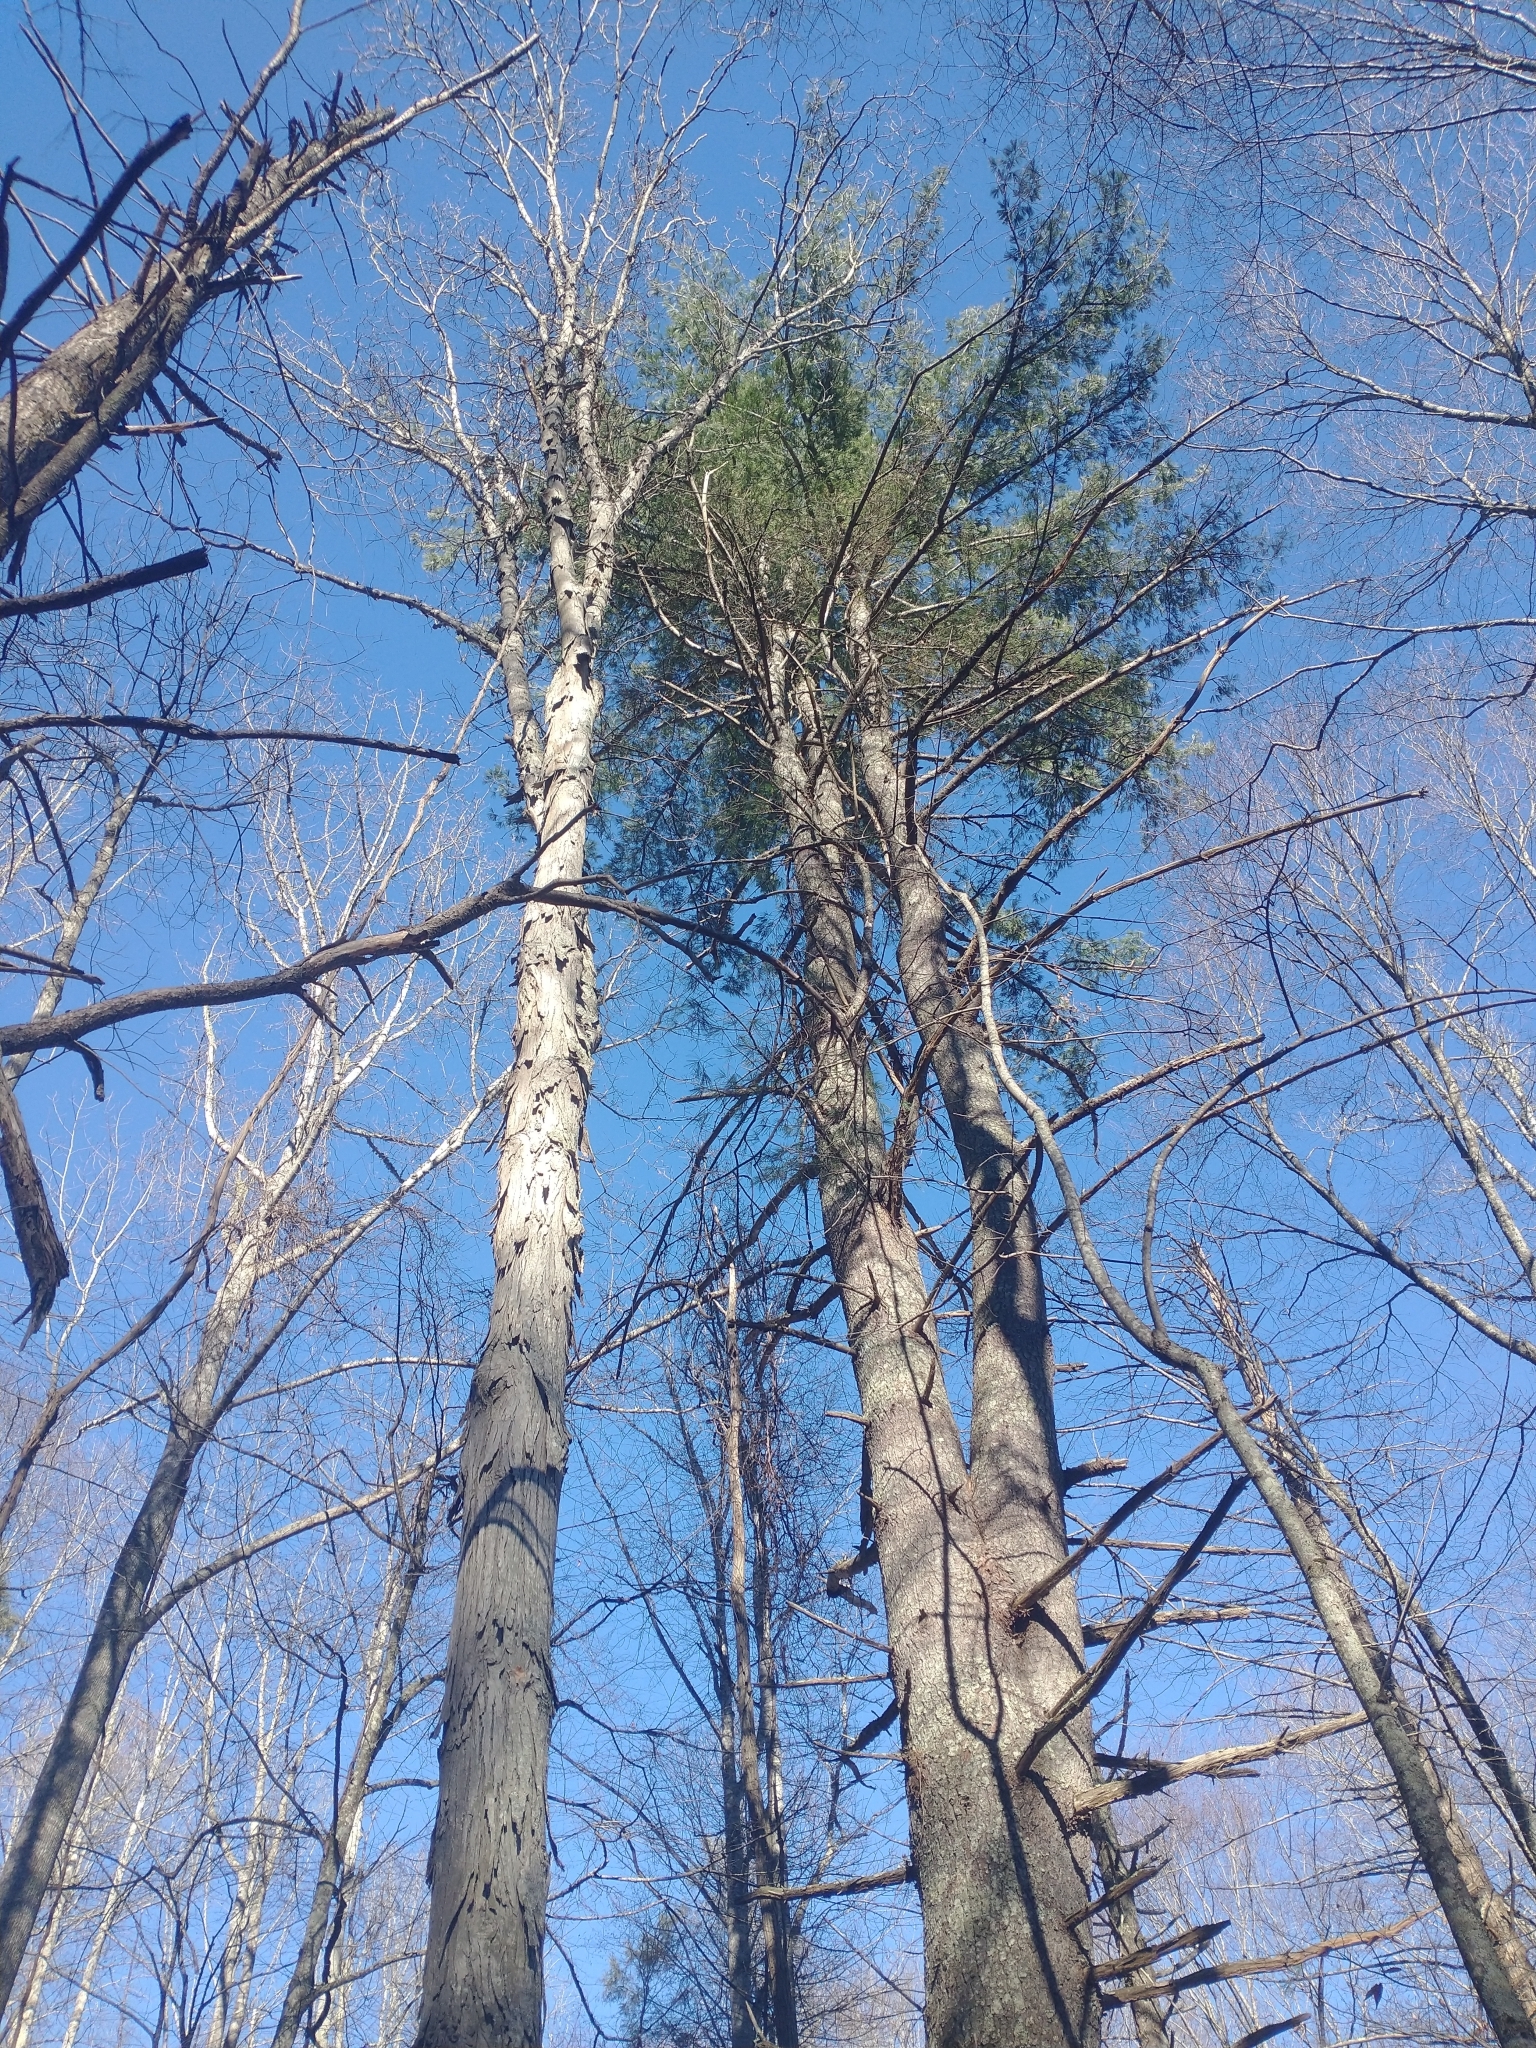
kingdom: Plantae
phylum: Tracheophyta
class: Pinopsida
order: Pinales
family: Pinaceae
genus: Pinus
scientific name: Pinus strobus
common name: Weymouth pine
